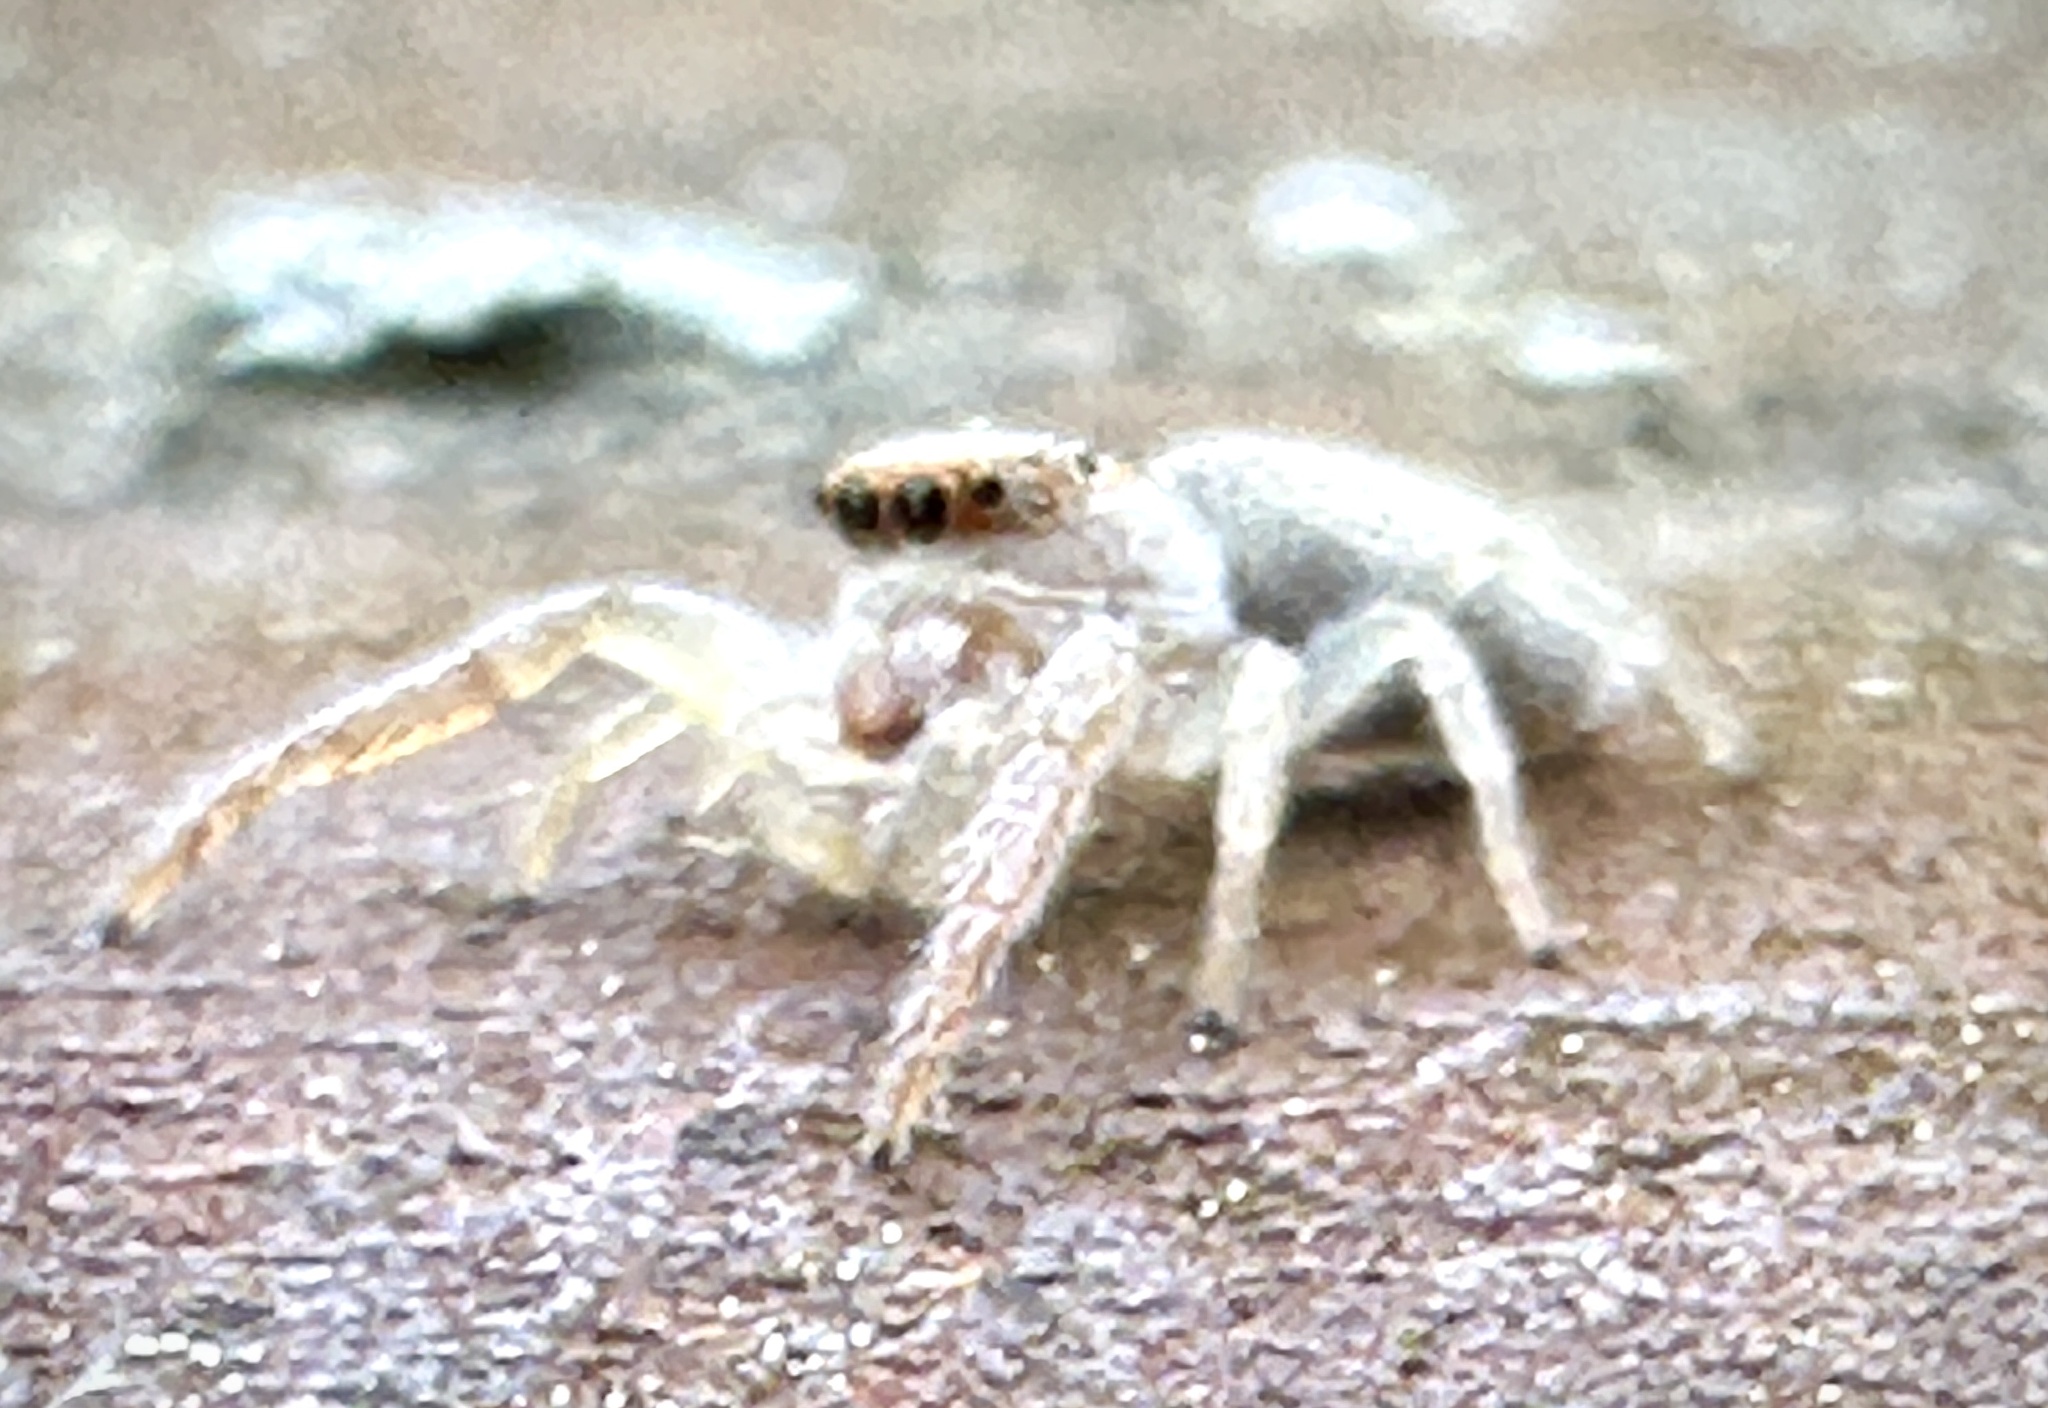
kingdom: Animalia
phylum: Arthropoda
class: Arachnida
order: Araneae
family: Salticidae
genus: Hentzia
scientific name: Hentzia mitrata
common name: White-jawed jumping spider
